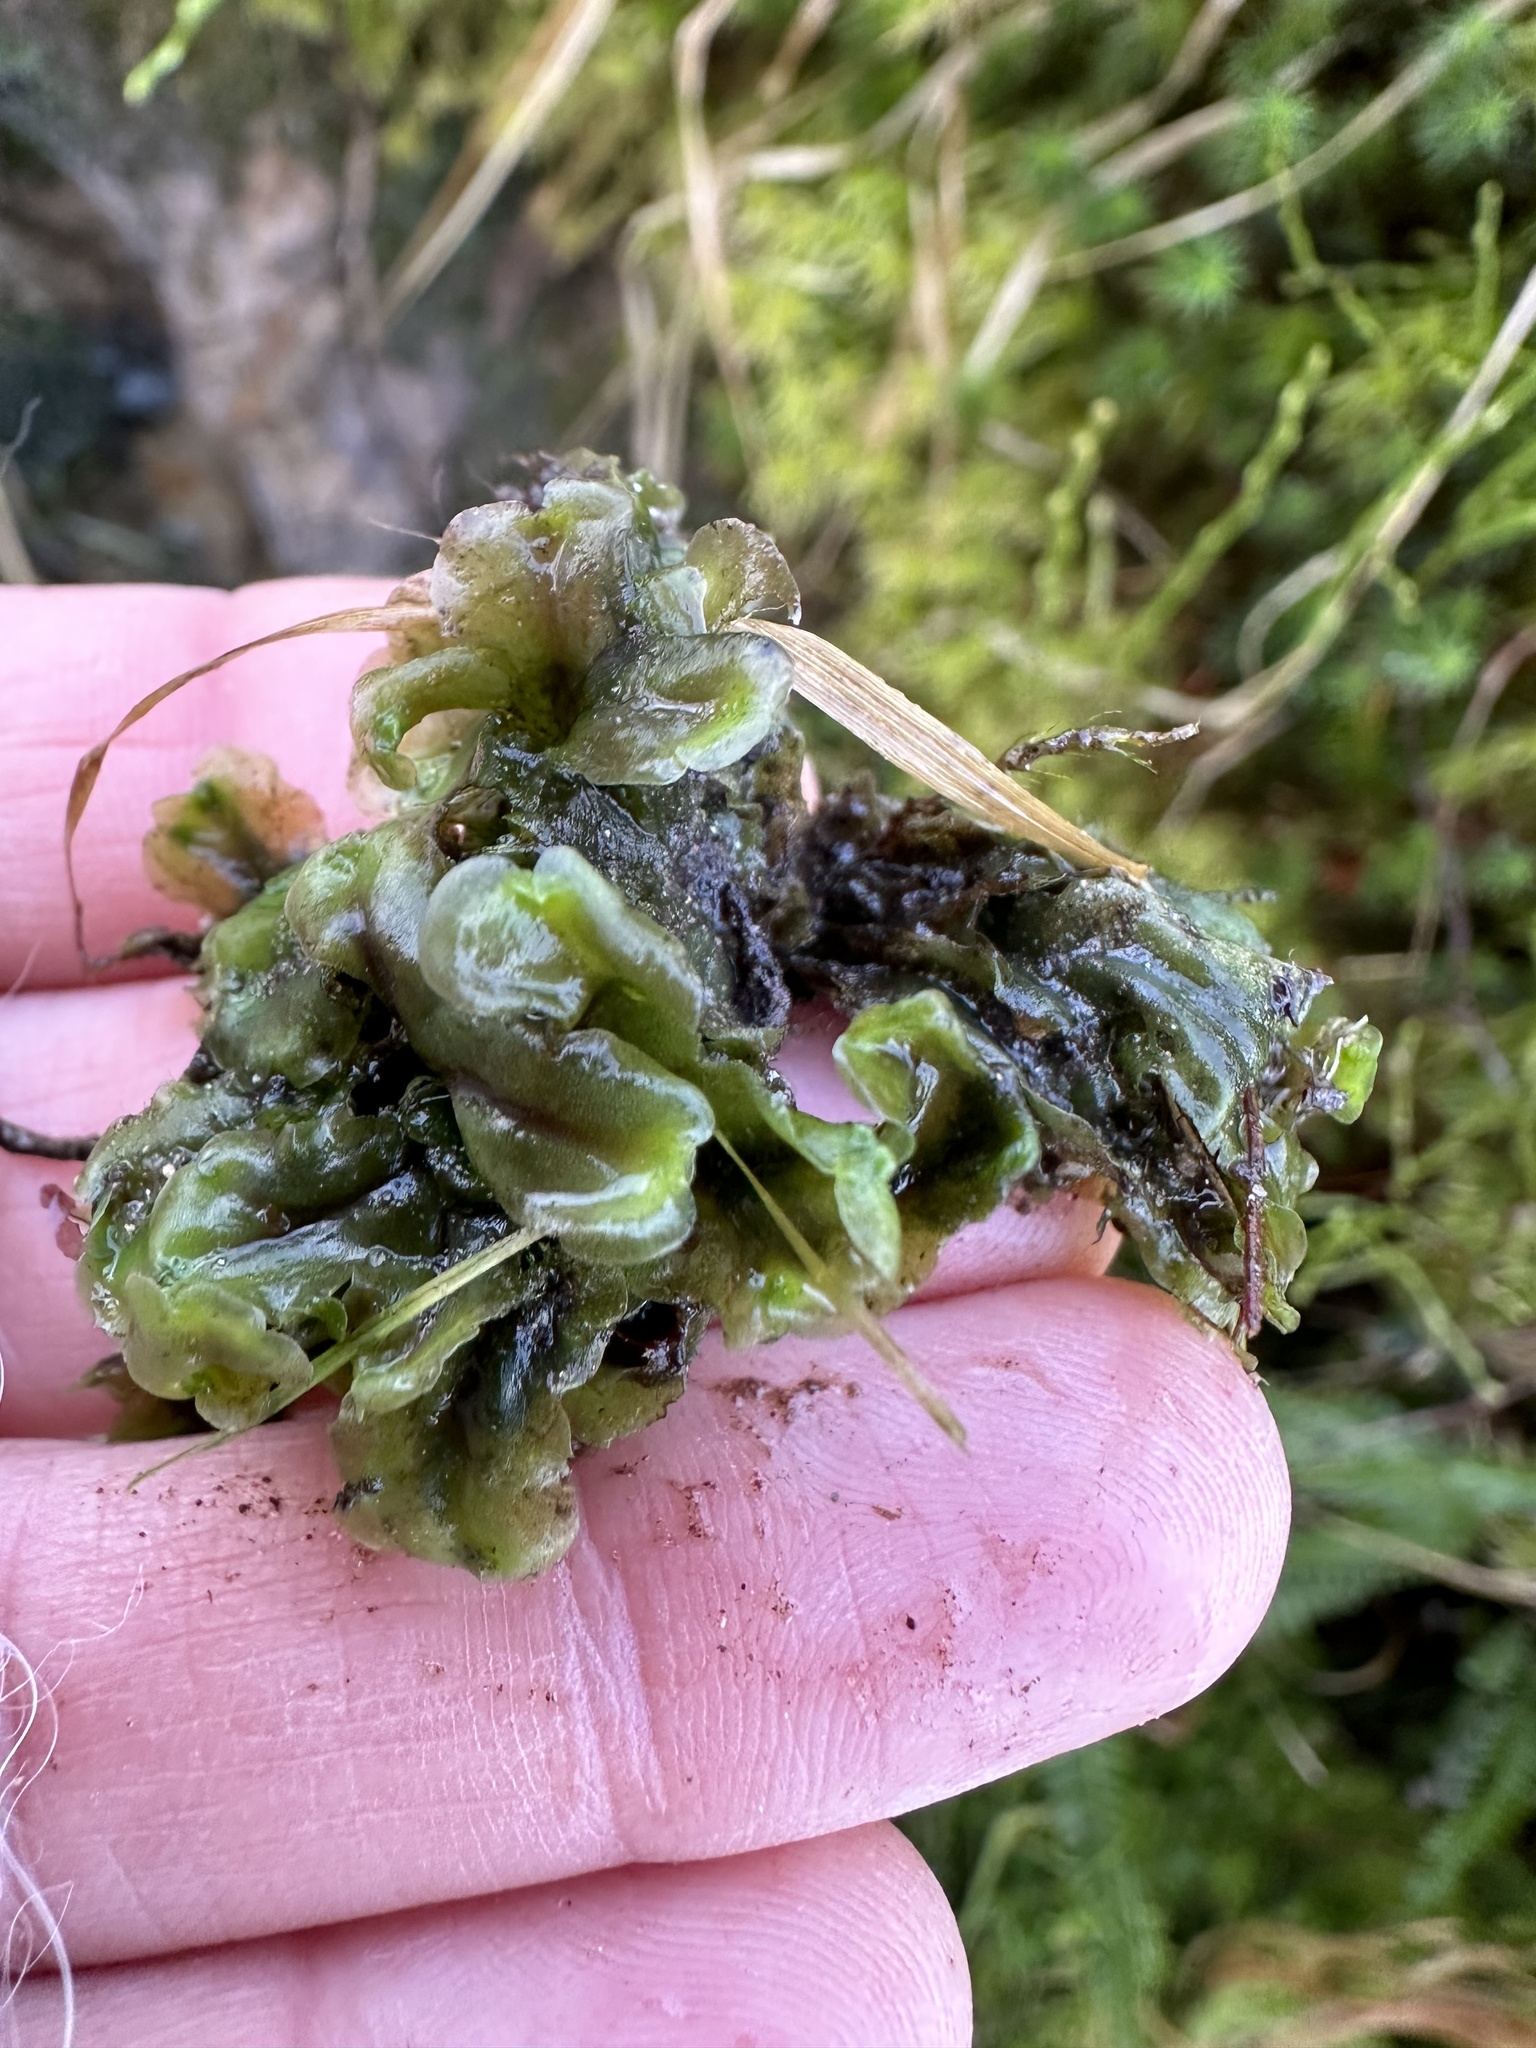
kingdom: Plantae
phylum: Marchantiophyta
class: Jungermanniopsida
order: Pelliales
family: Pelliaceae
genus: Pellia
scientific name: Pellia epiphylla
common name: Common pellia
